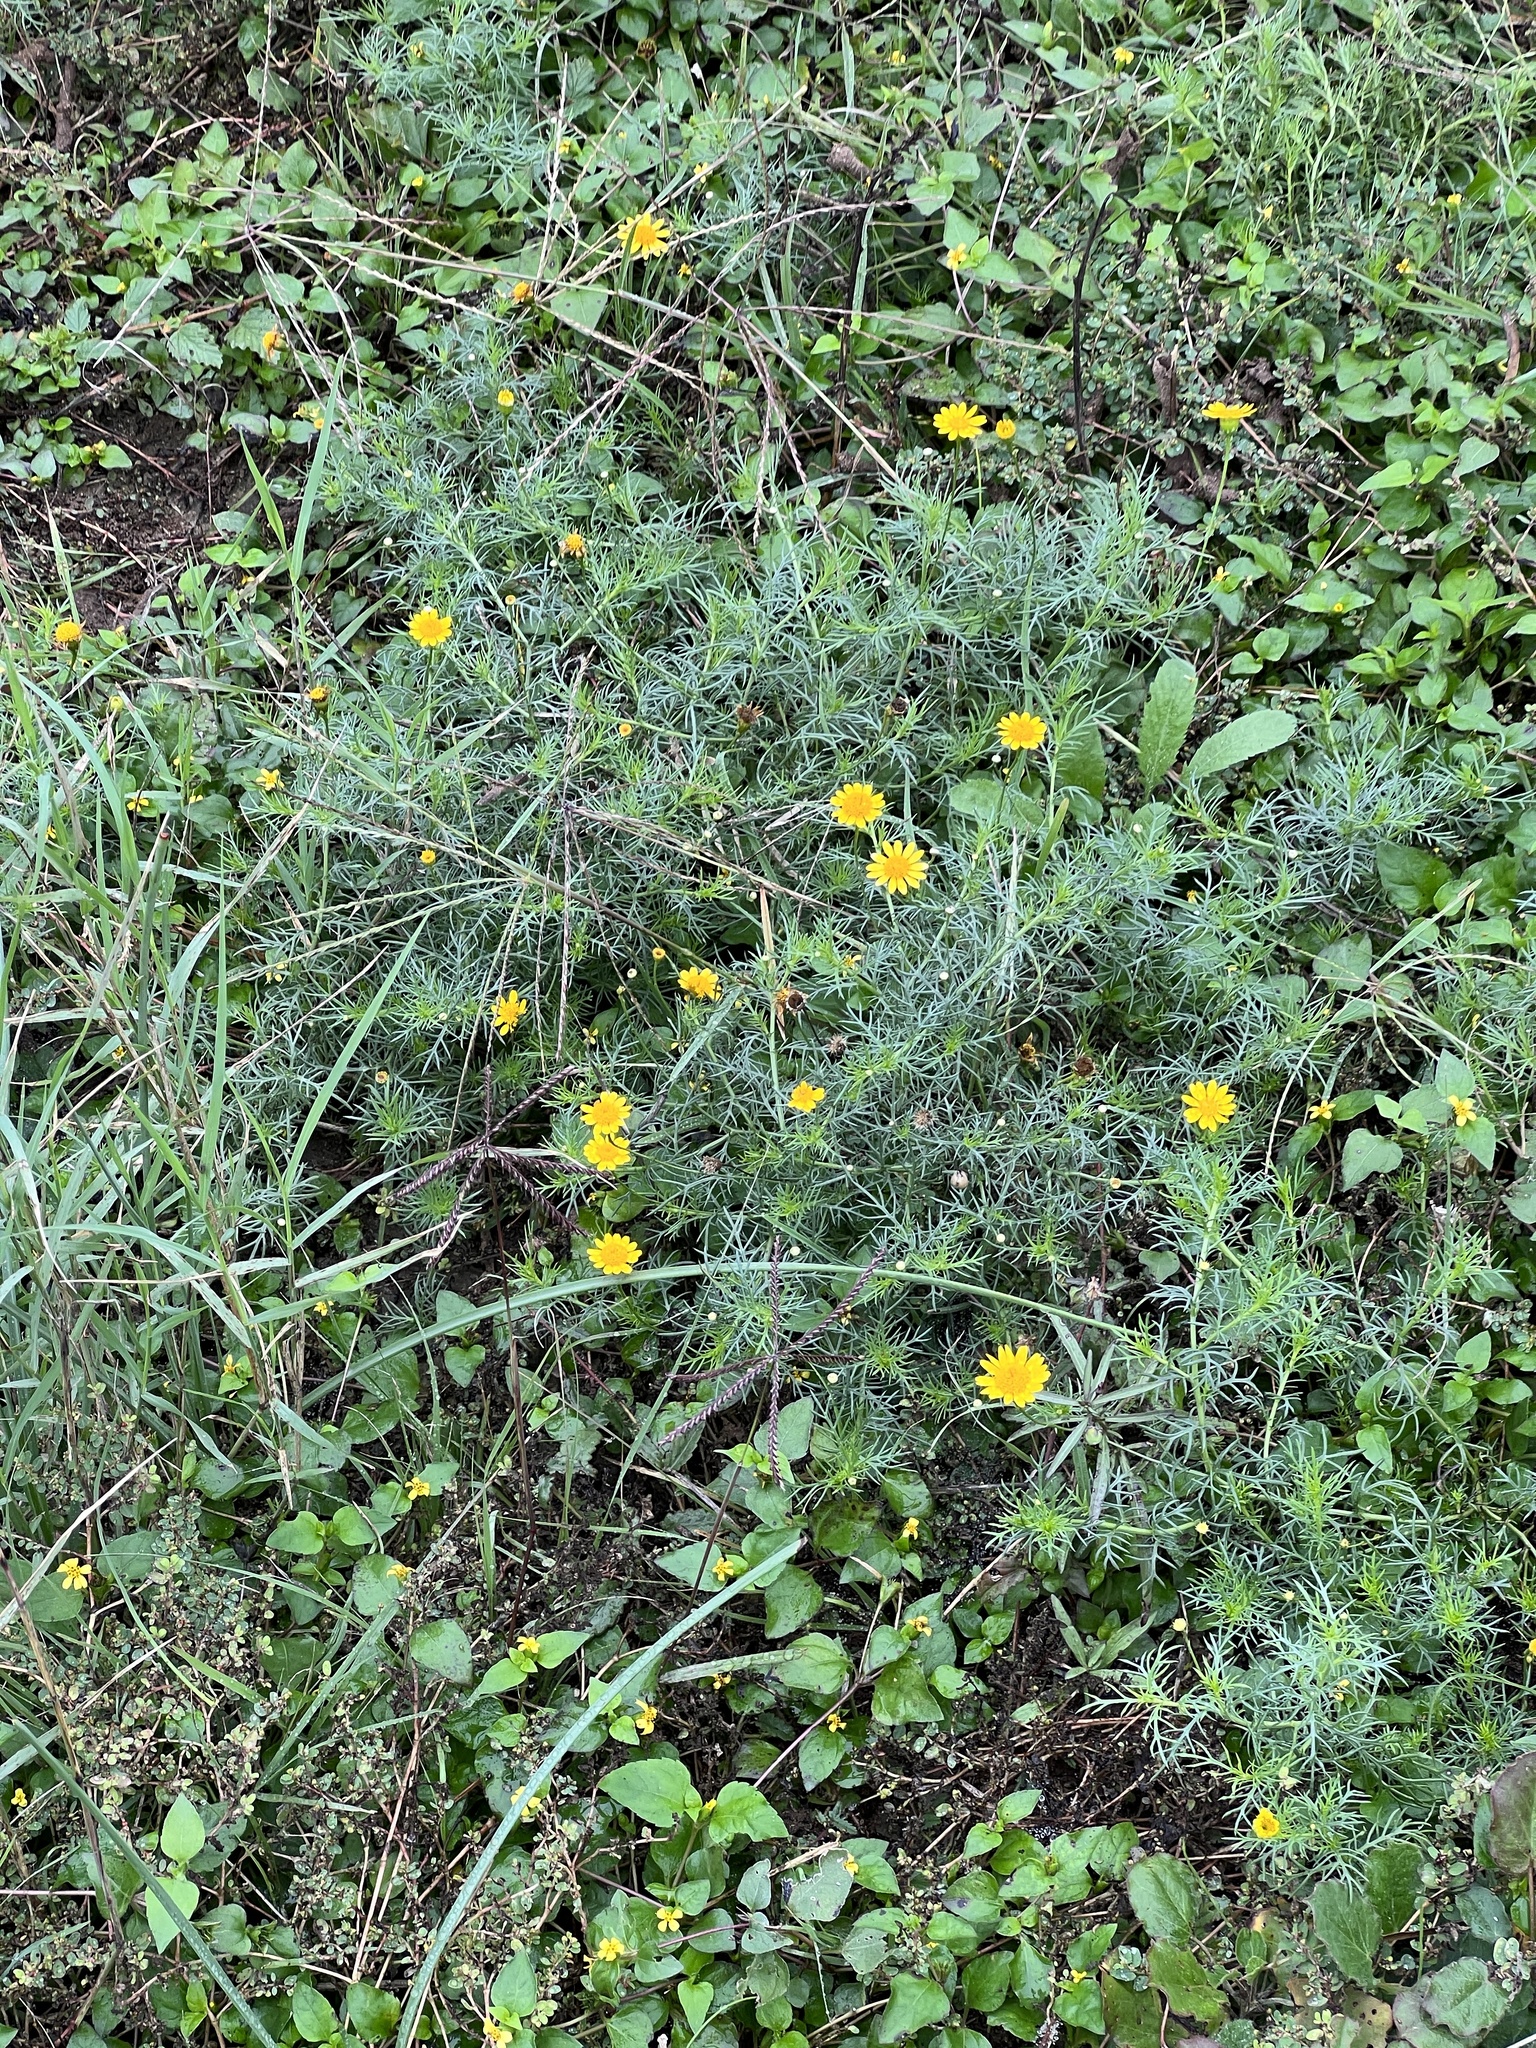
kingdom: Plantae
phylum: Tracheophyta
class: Magnoliopsida
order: Asterales
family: Asteraceae
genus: Thymophylla
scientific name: Thymophylla tenuiloba
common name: Dahlberg's daisy
